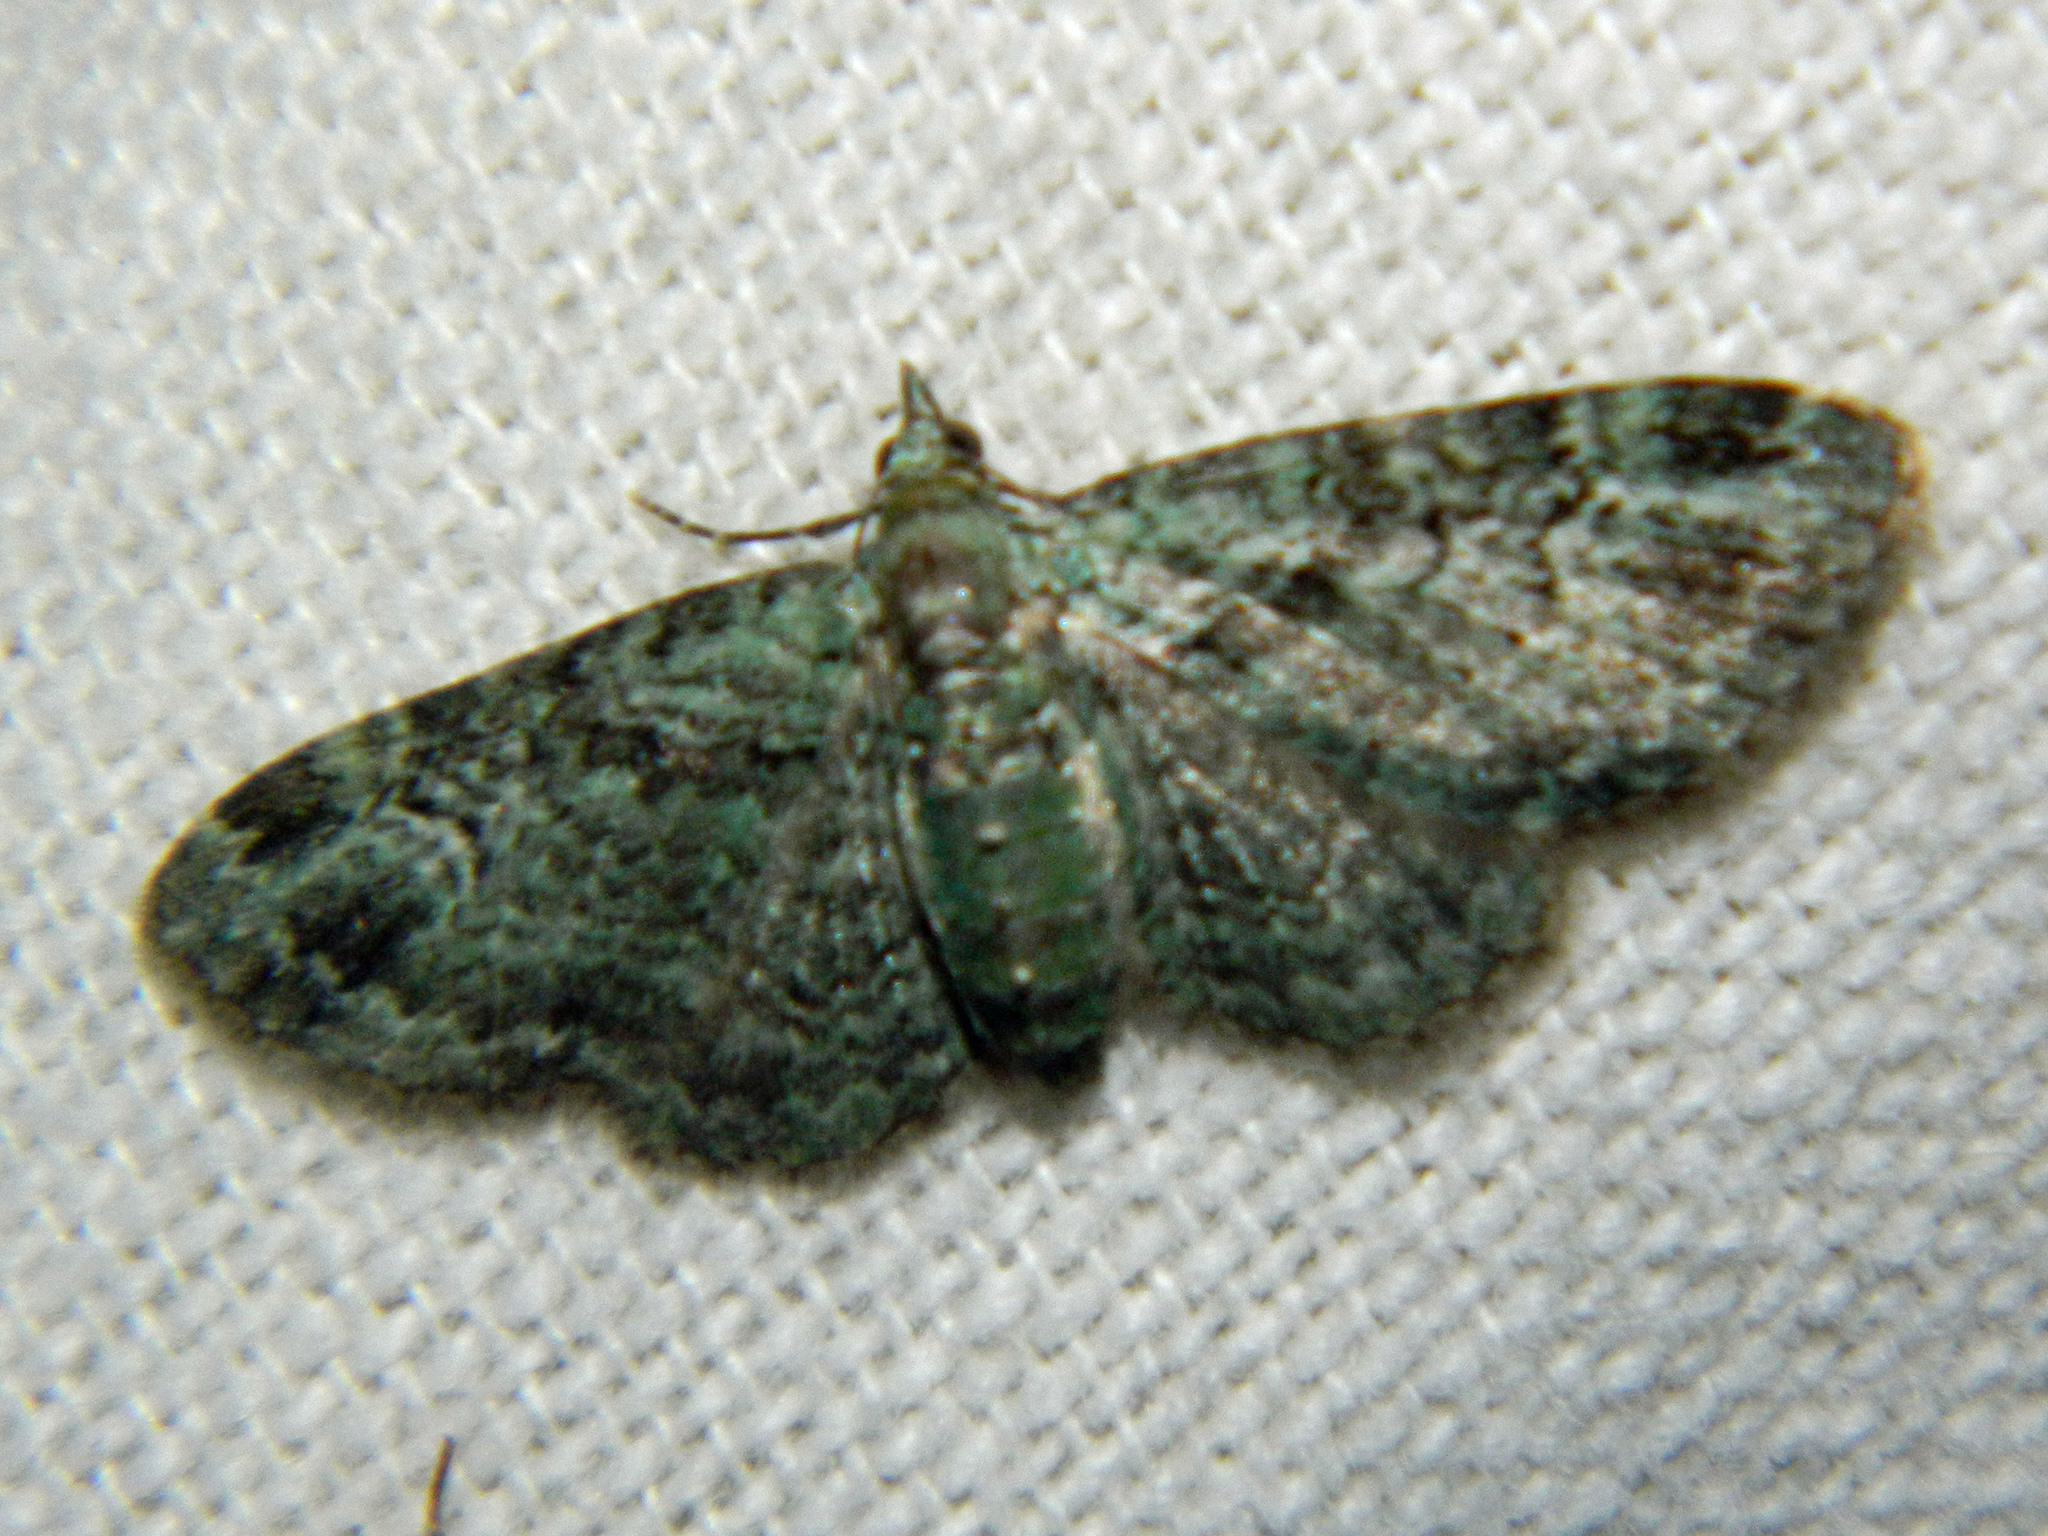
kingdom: Animalia
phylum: Arthropoda
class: Insecta
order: Lepidoptera
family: Geometridae
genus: Pasiphila
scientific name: Pasiphila rectangulata
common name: Green pug
